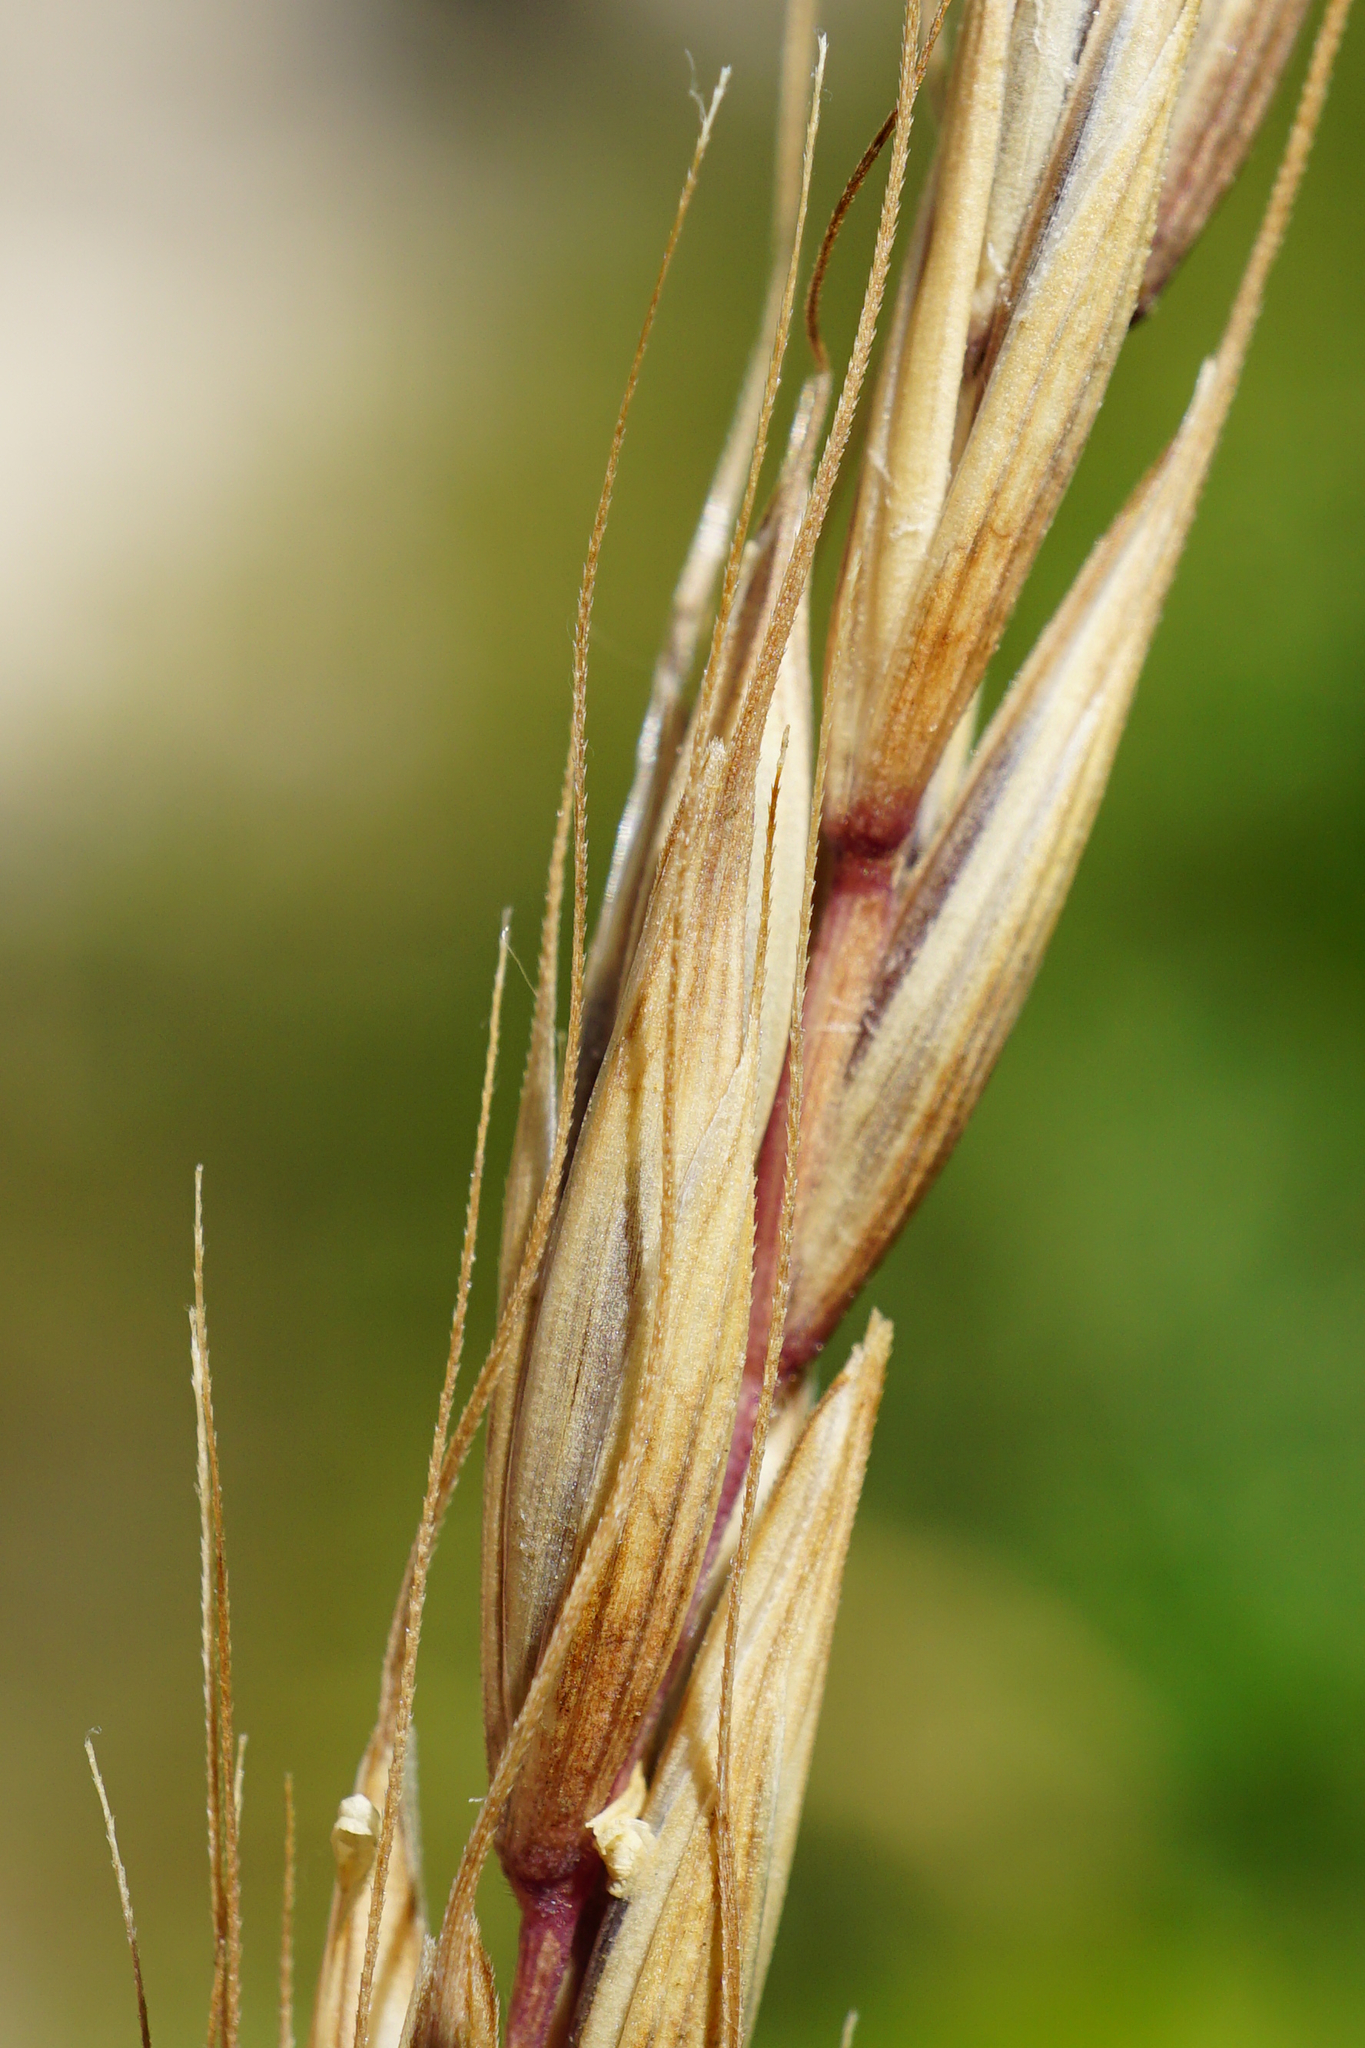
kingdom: Plantae
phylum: Tracheophyta
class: Liliopsida
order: Poales
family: Poaceae
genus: Elymus
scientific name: Elymus caninus
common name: Bearded couch
